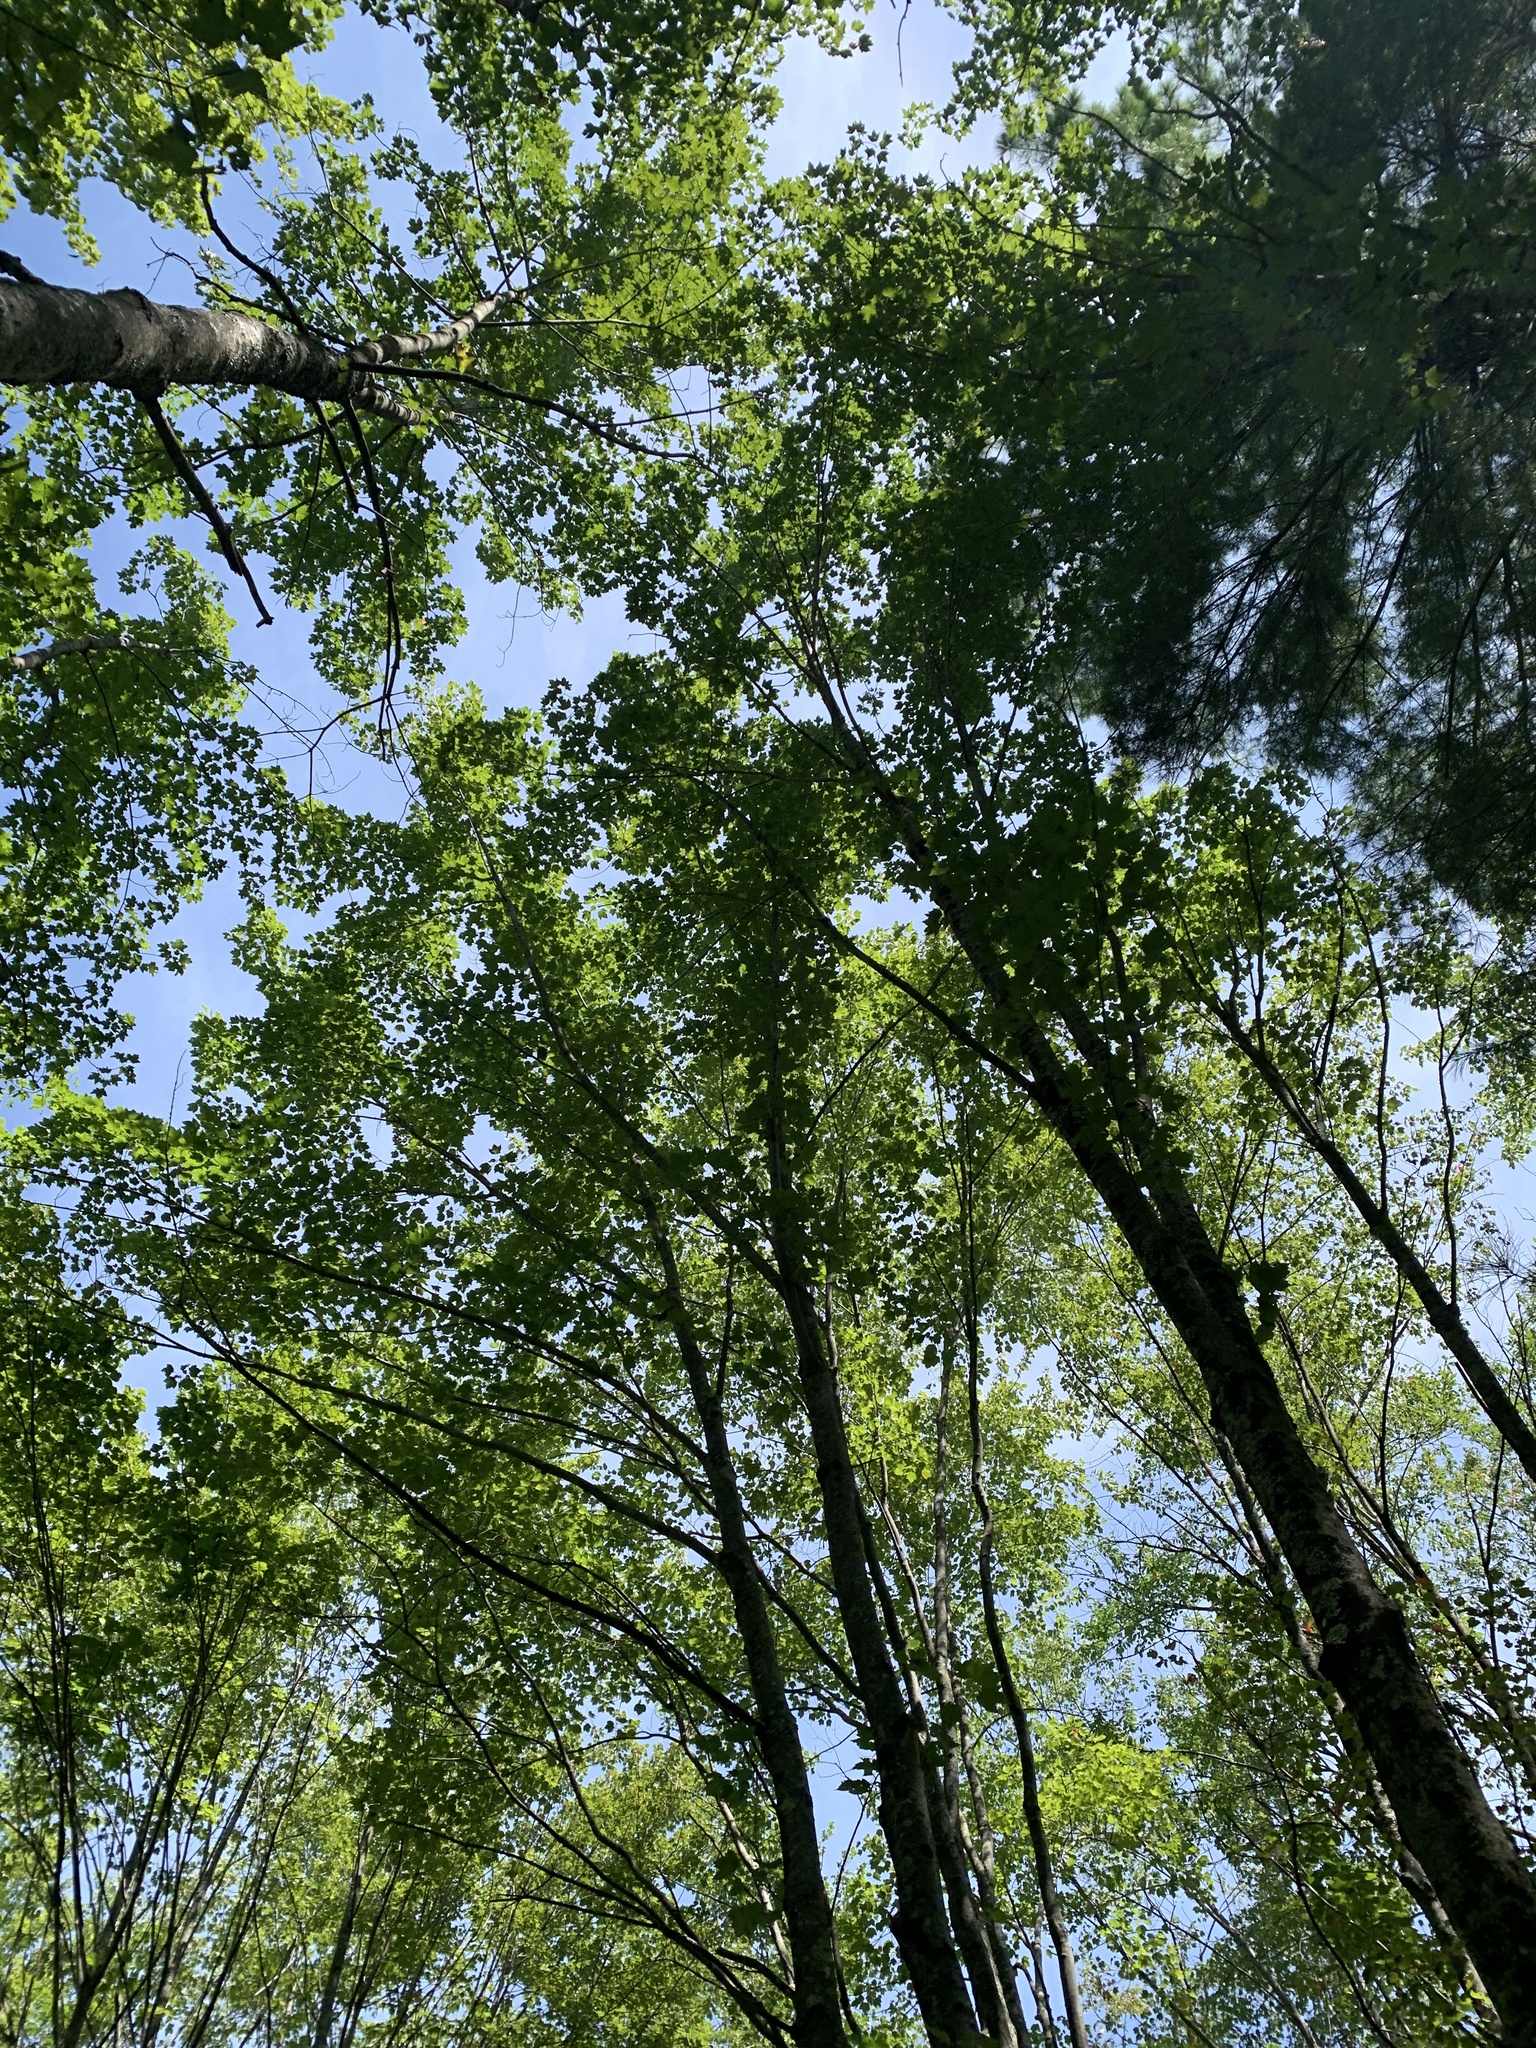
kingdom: Plantae
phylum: Tracheophyta
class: Magnoliopsida
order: Sapindales
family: Sapindaceae
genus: Acer
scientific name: Acer rubrum
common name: Red maple
